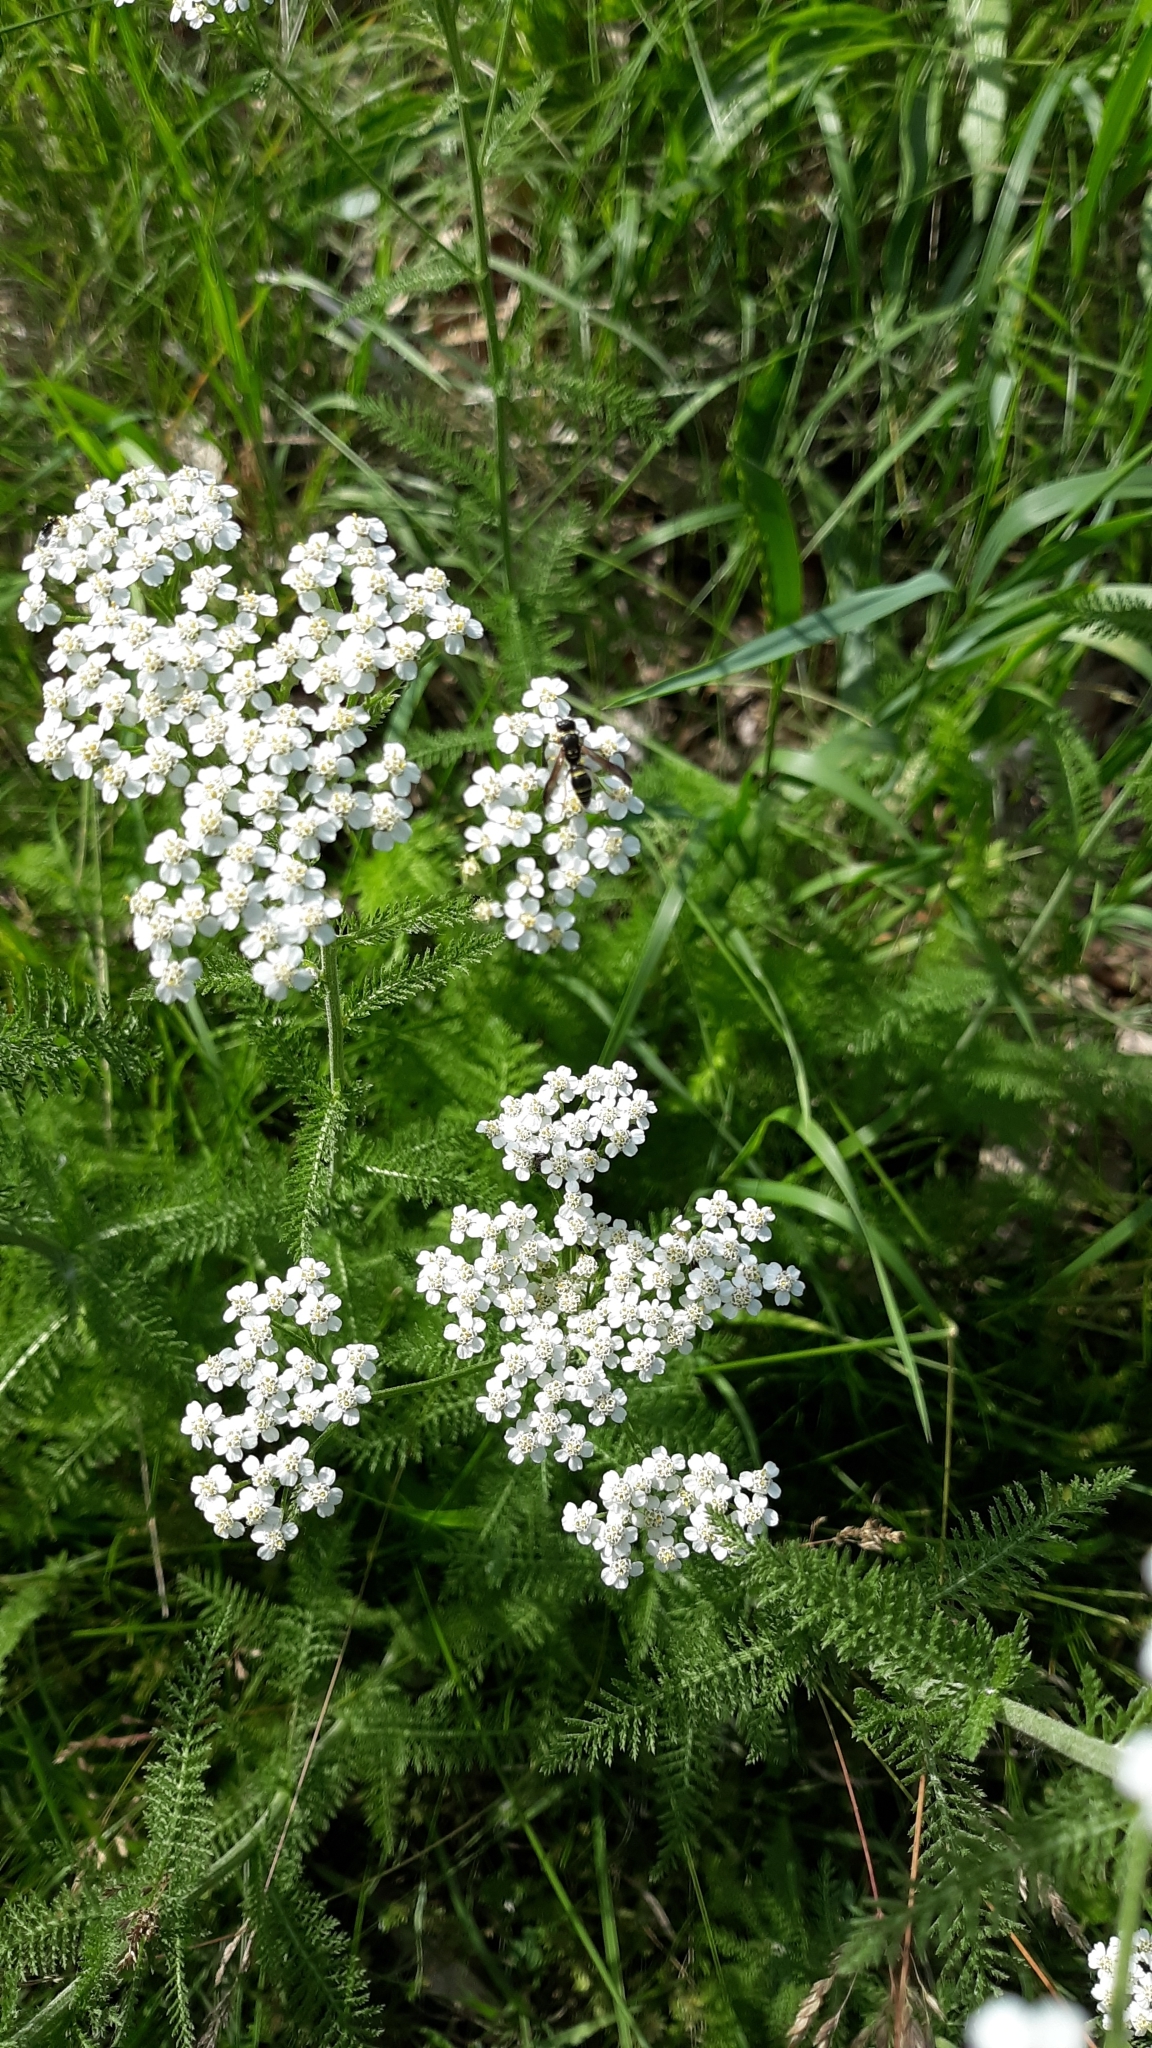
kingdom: Plantae
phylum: Tracheophyta
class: Magnoliopsida
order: Asterales
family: Asteraceae
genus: Achillea
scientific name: Achillea millefolium
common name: Yarrow
